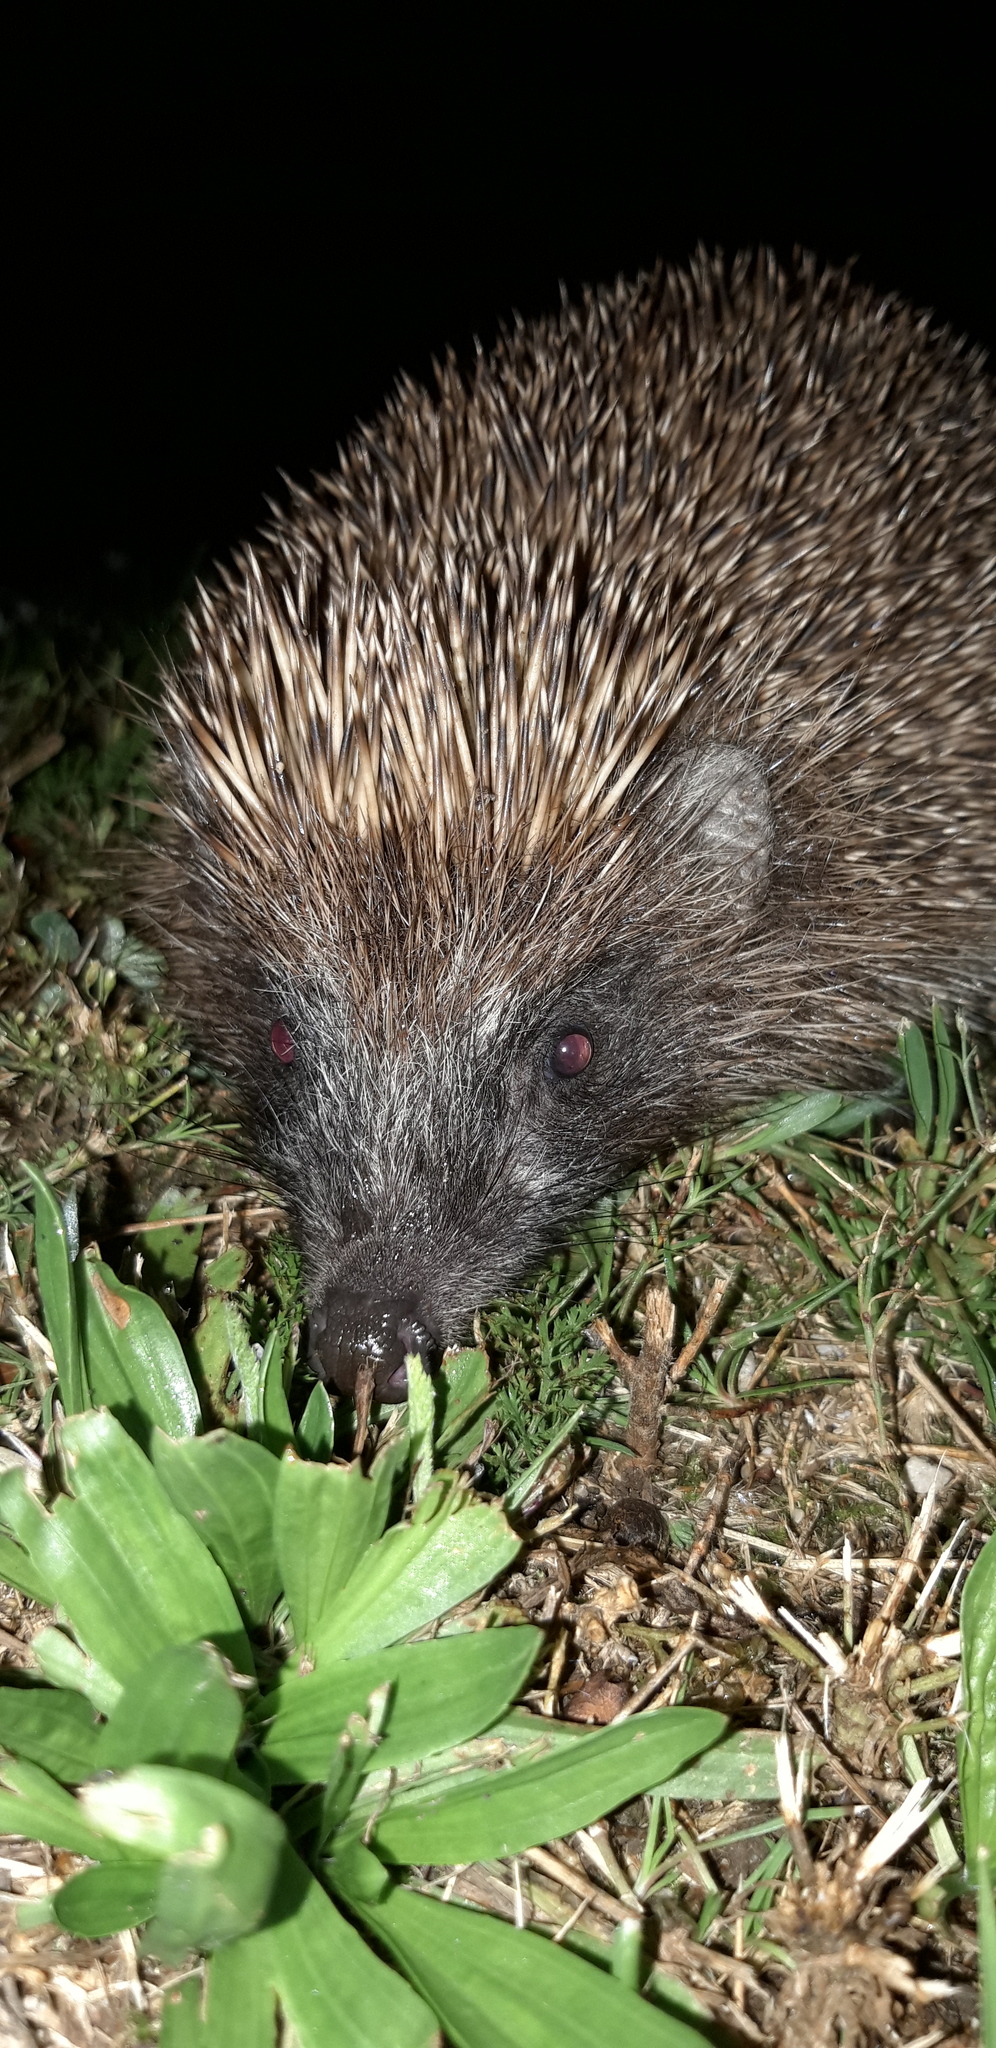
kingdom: Animalia
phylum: Chordata
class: Mammalia
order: Erinaceomorpha
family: Erinaceidae
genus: Erinaceus
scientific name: Erinaceus roumanicus
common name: Northern white-breasted hedgehog
